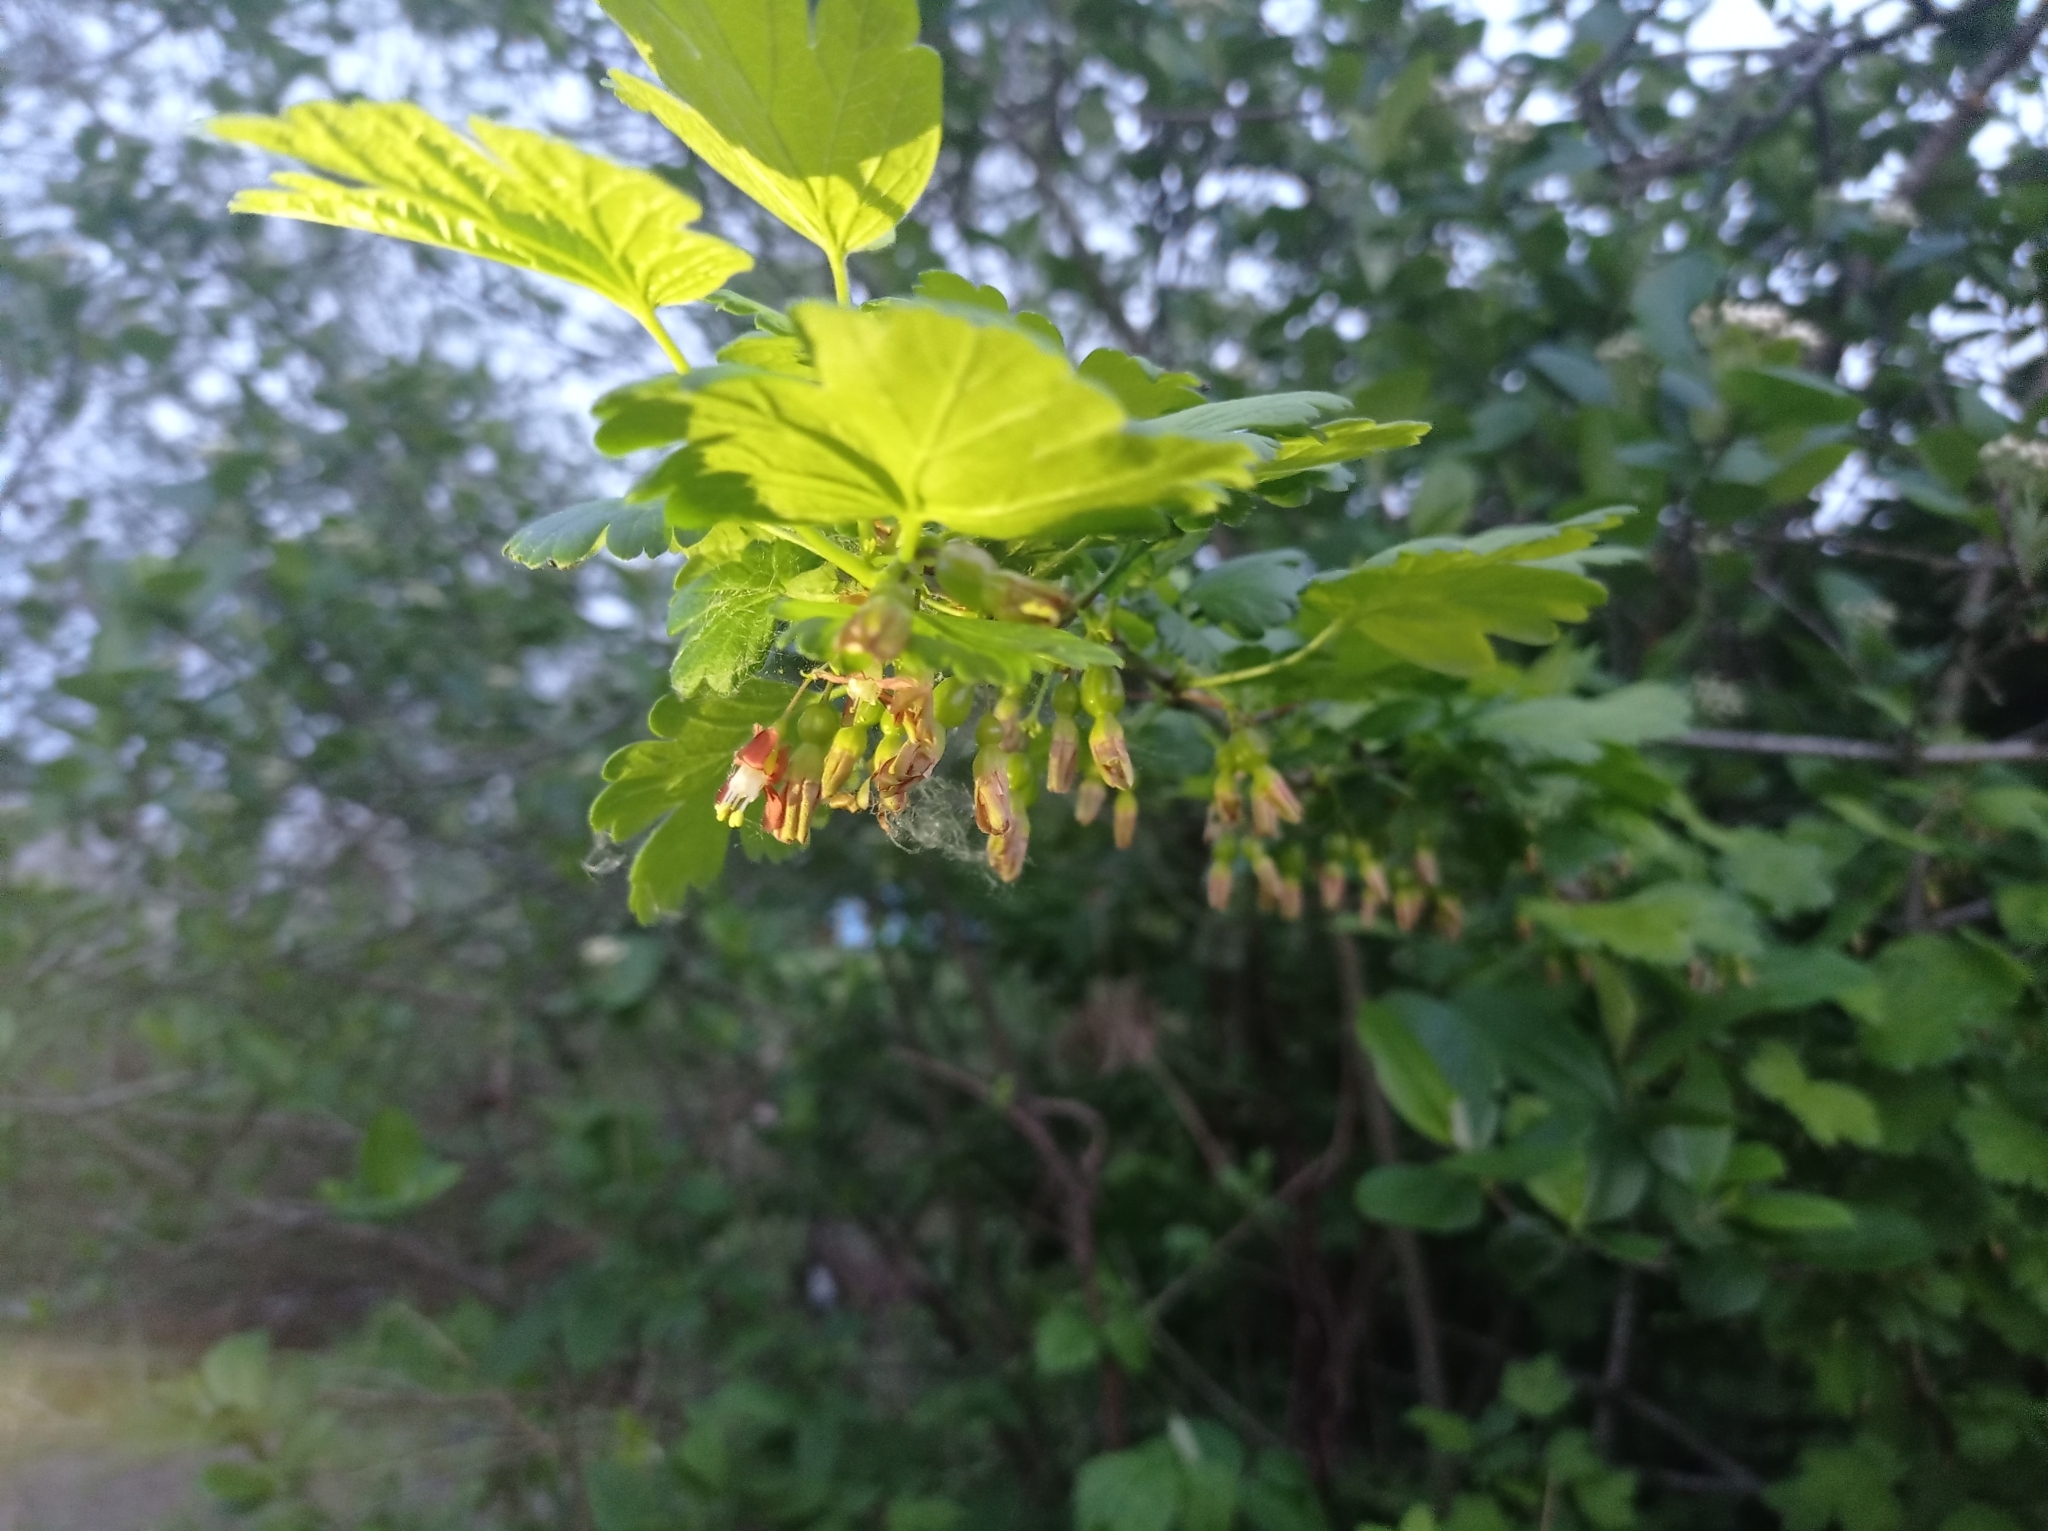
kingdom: Plantae
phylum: Tracheophyta
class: Magnoliopsida
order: Saxifragales
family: Grossulariaceae
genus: Ribes
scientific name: Ribes uva-crispa
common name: Gooseberry
